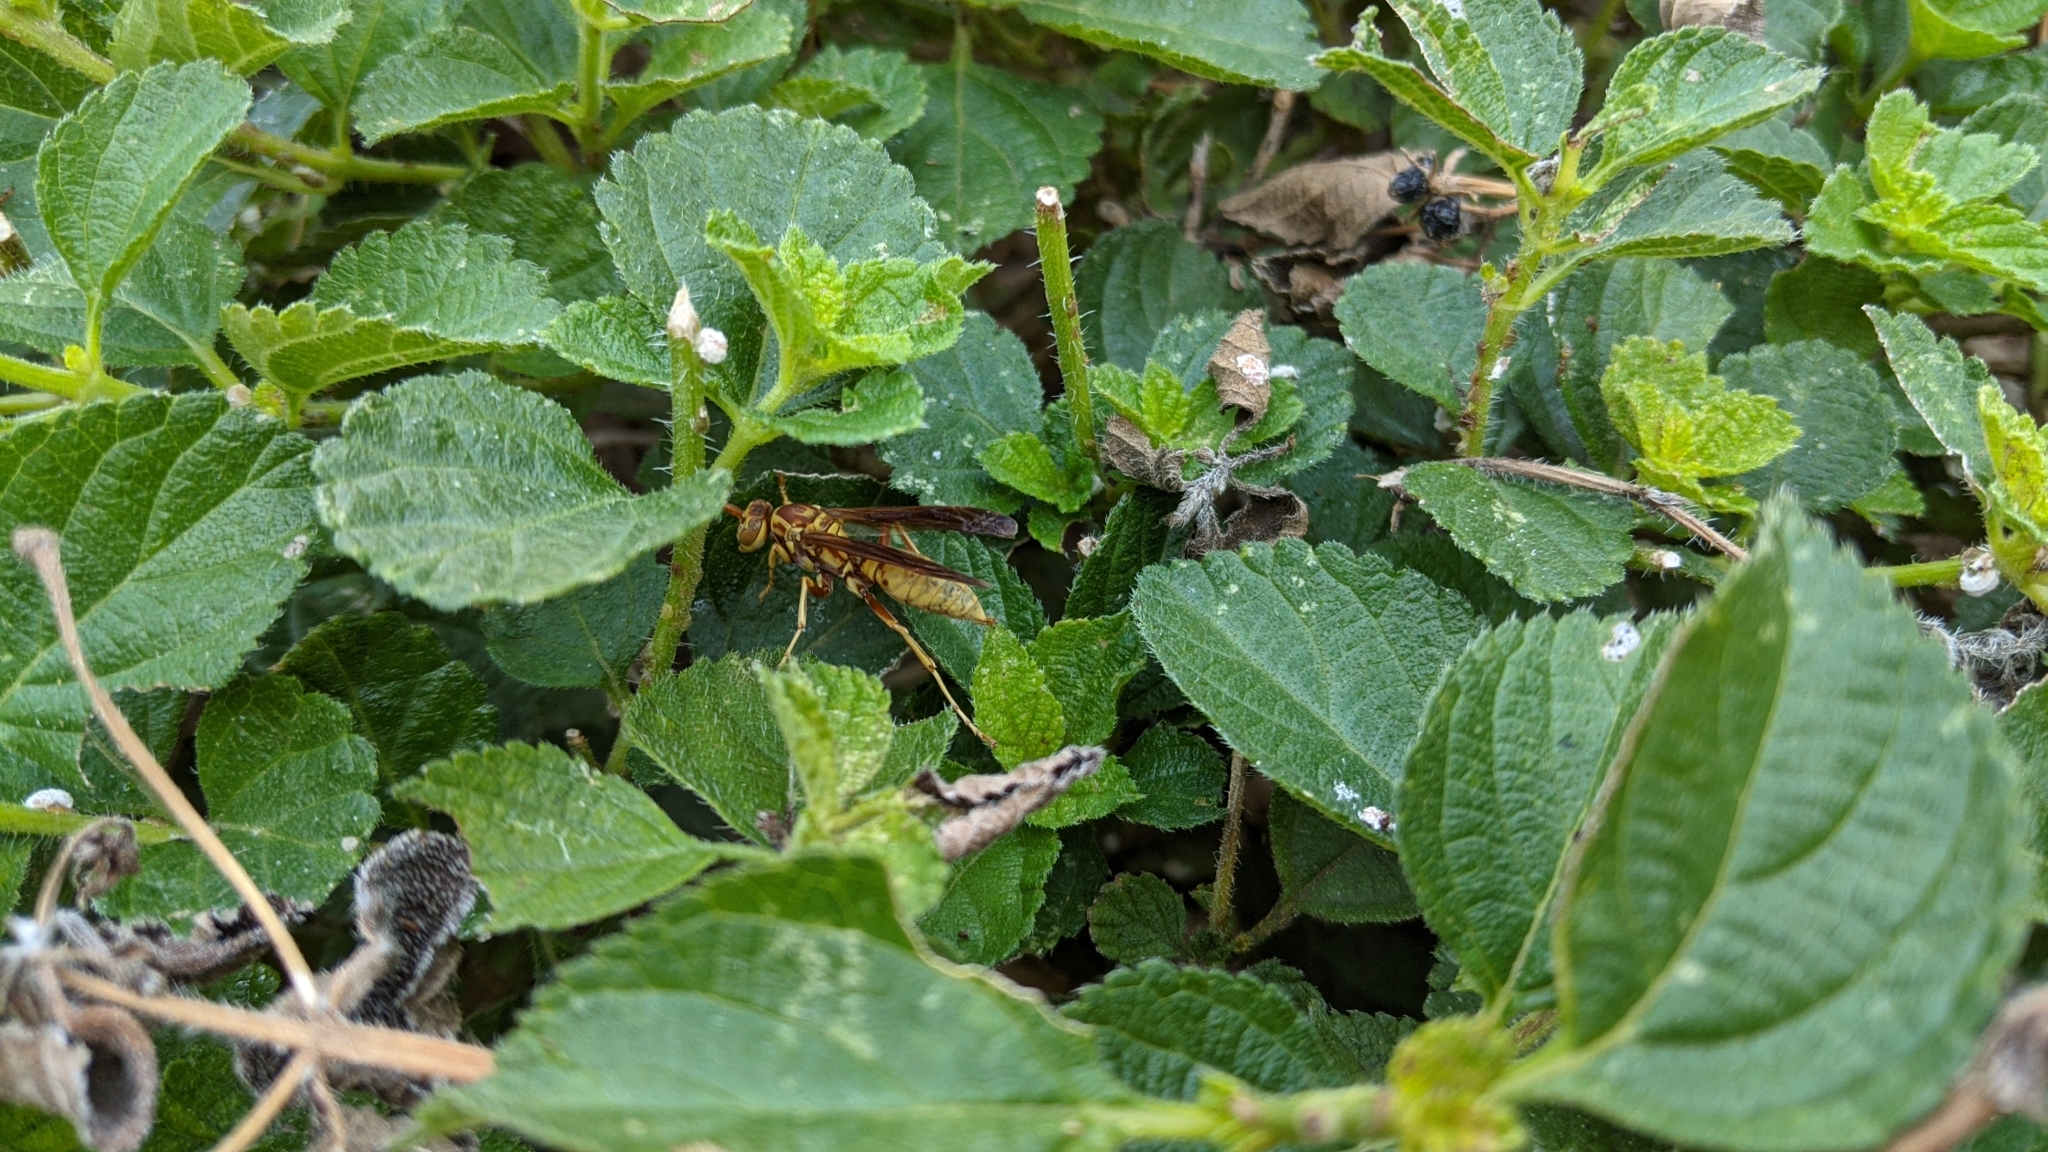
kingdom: Animalia
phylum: Arthropoda
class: Insecta
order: Hymenoptera
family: Eumenidae
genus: Polistes
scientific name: Polistes aurifer
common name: Paper wasp
